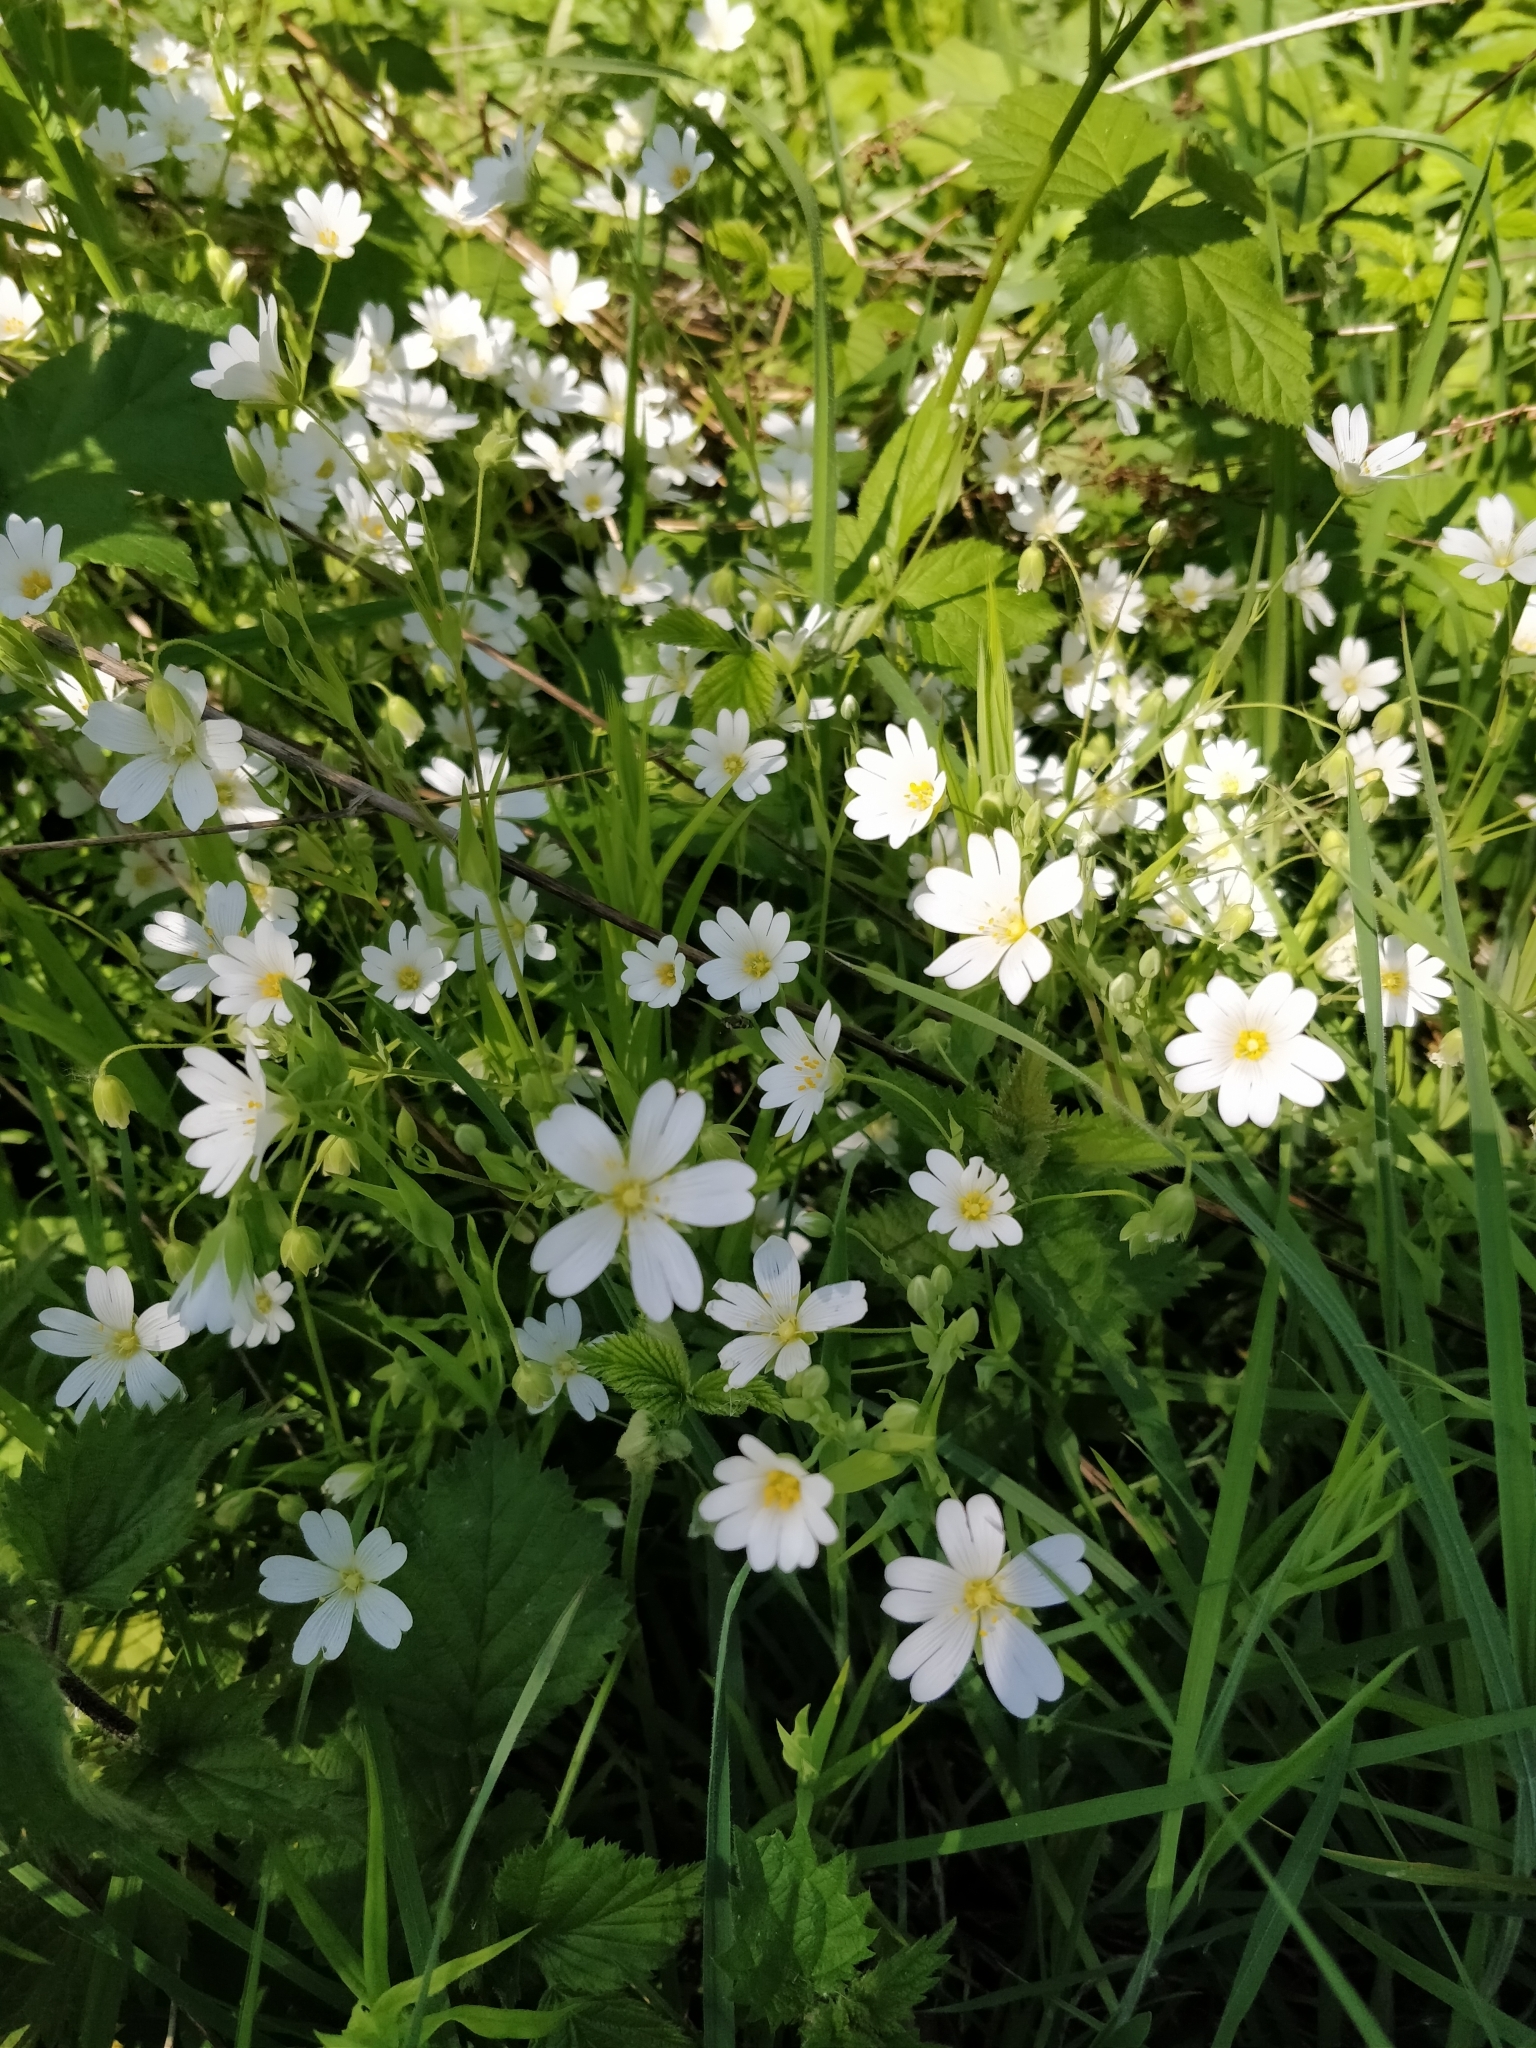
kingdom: Plantae
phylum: Tracheophyta
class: Magnoliopsida
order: Caryophyllales
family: Caryophyllaceae
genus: Rabelera
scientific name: Rabelera holostea
